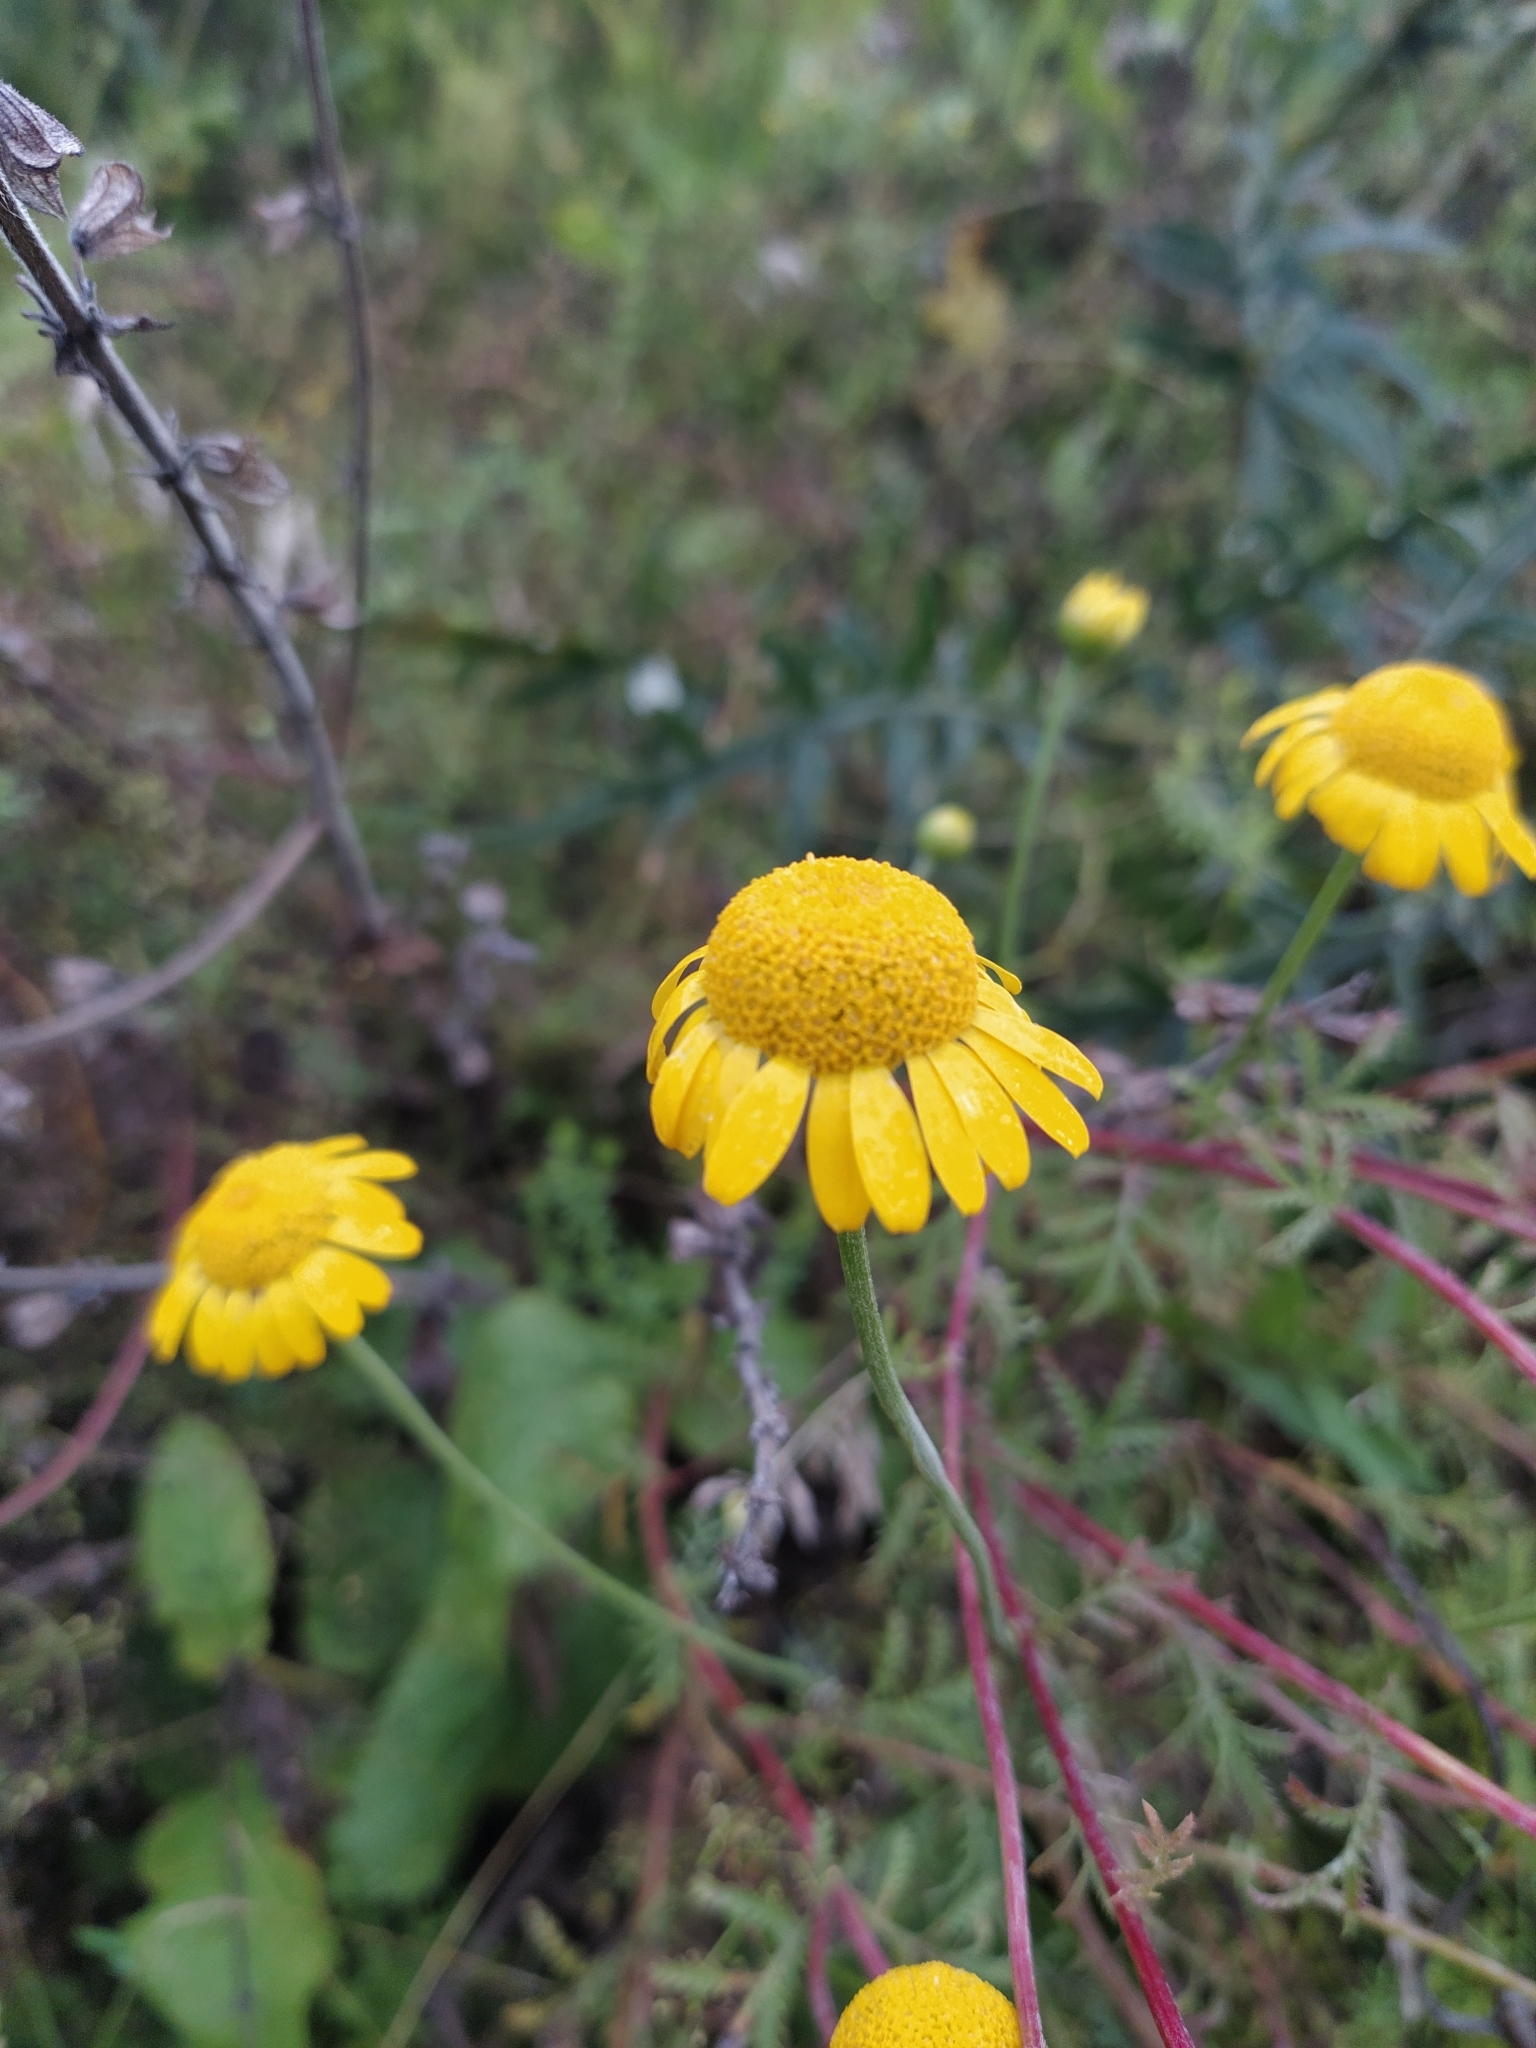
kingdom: Plantae
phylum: Tracheophyta
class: Magnoliopsida
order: Asterales
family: Asteraceae
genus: Cota
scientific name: Cota tinctoria
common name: Golden chamomile
